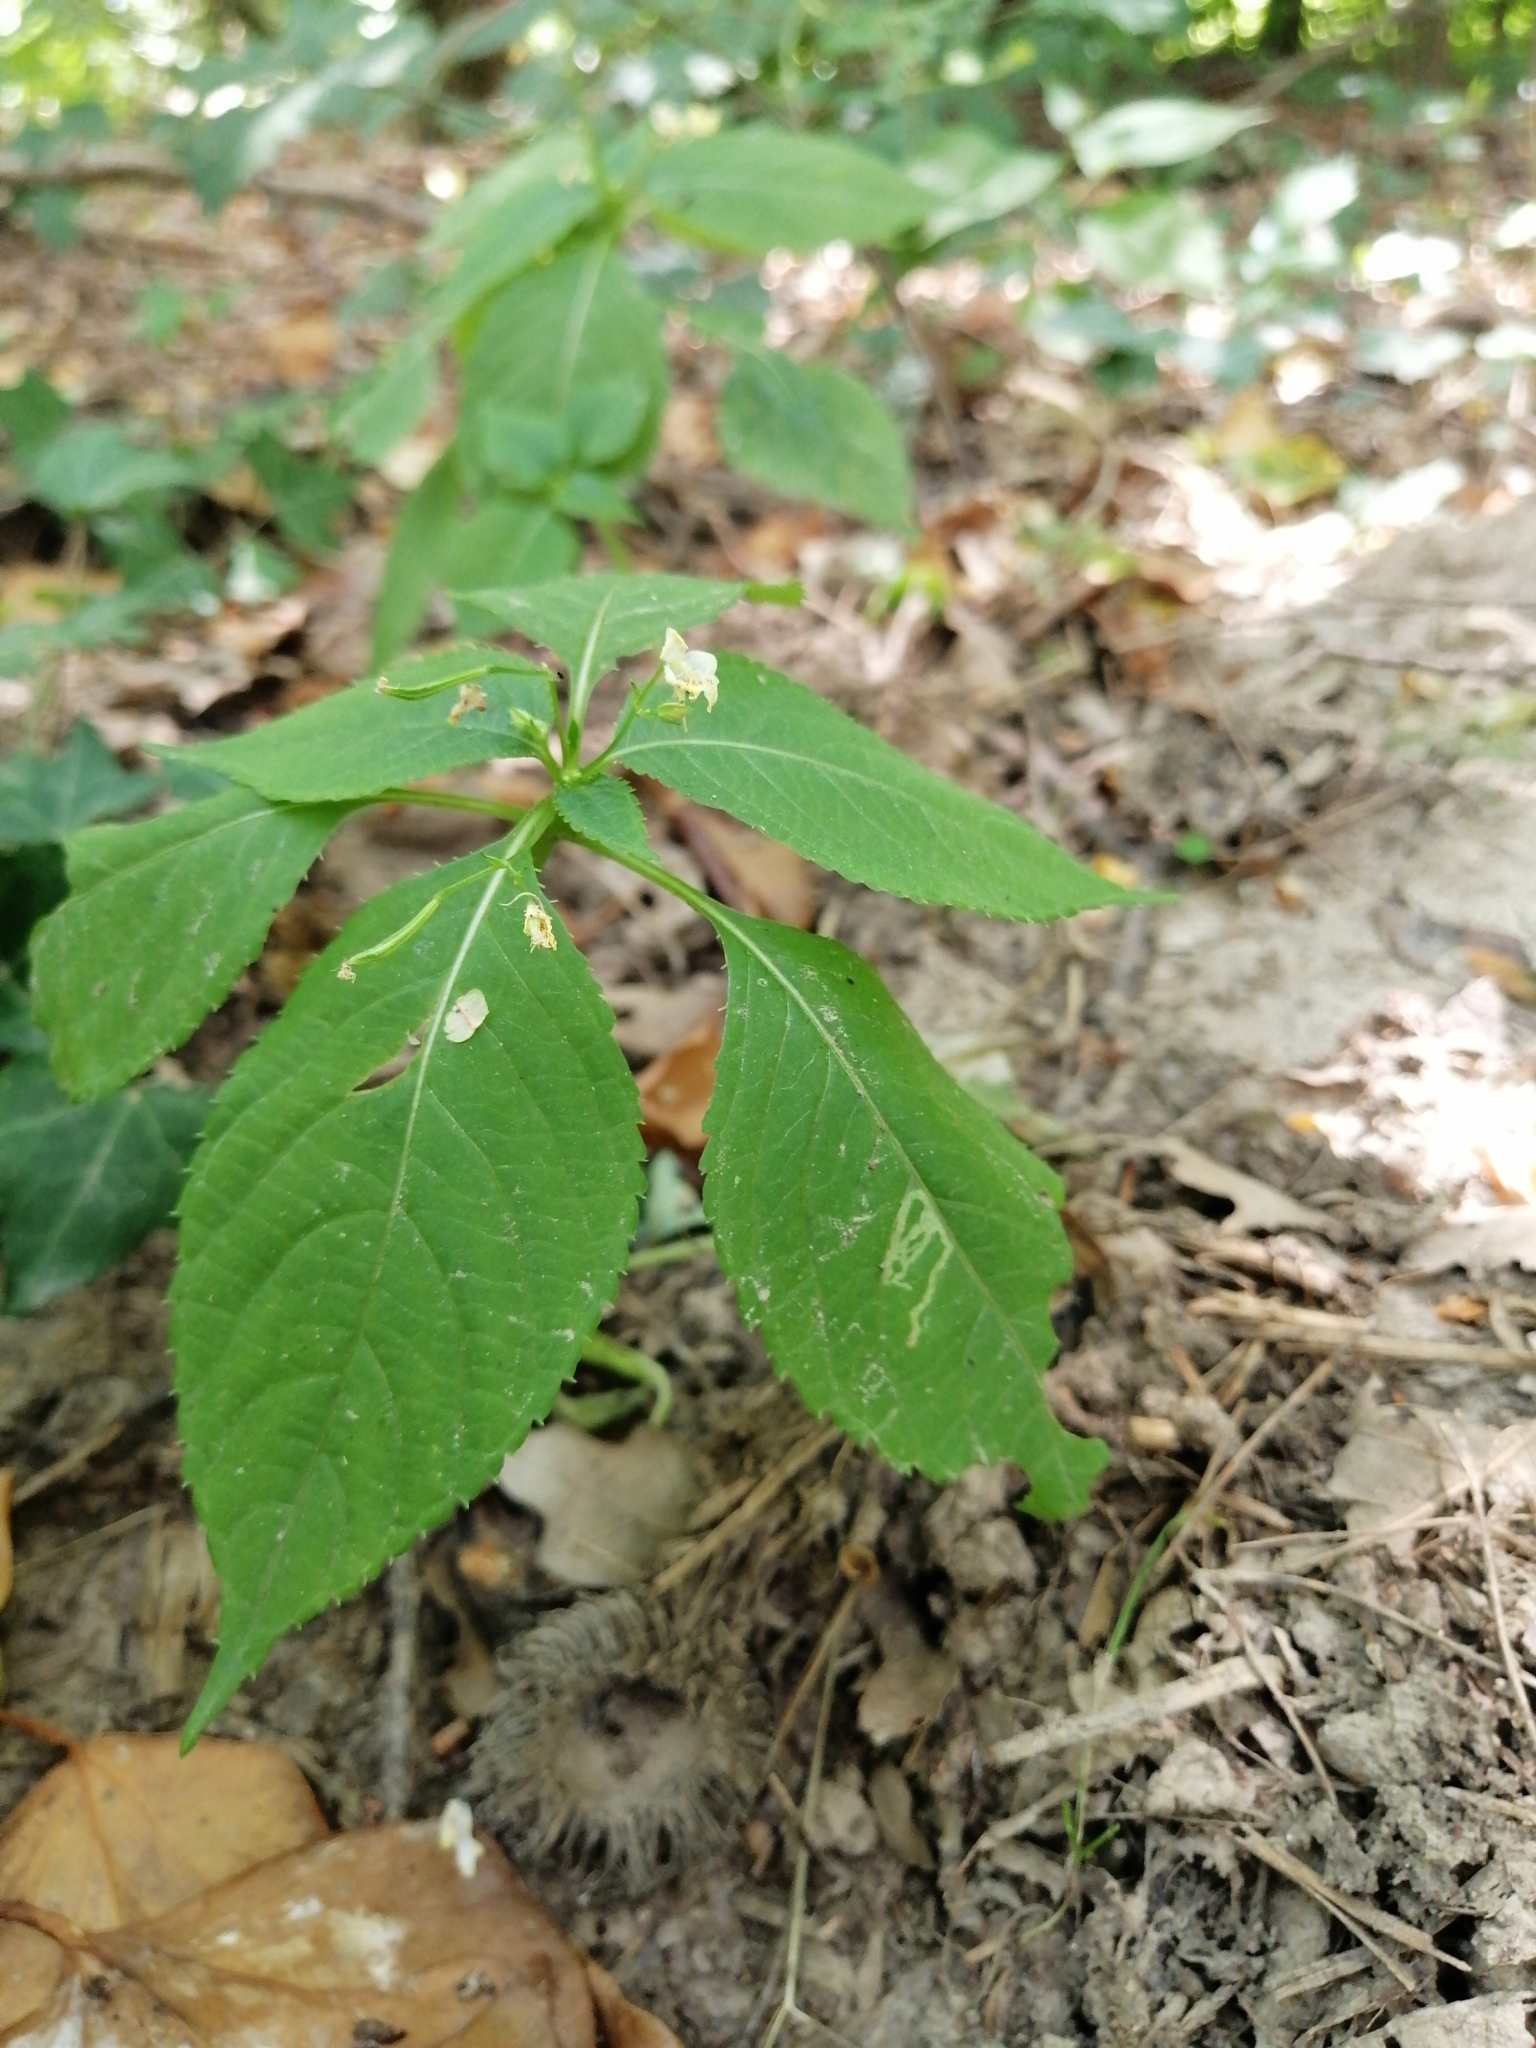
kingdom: Plantae
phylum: Tracheophyta
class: Magnoliopsida
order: Ericales
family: Balsaminaceae
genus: Impatiens
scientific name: Impatiens parviflora
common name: Small balsam
